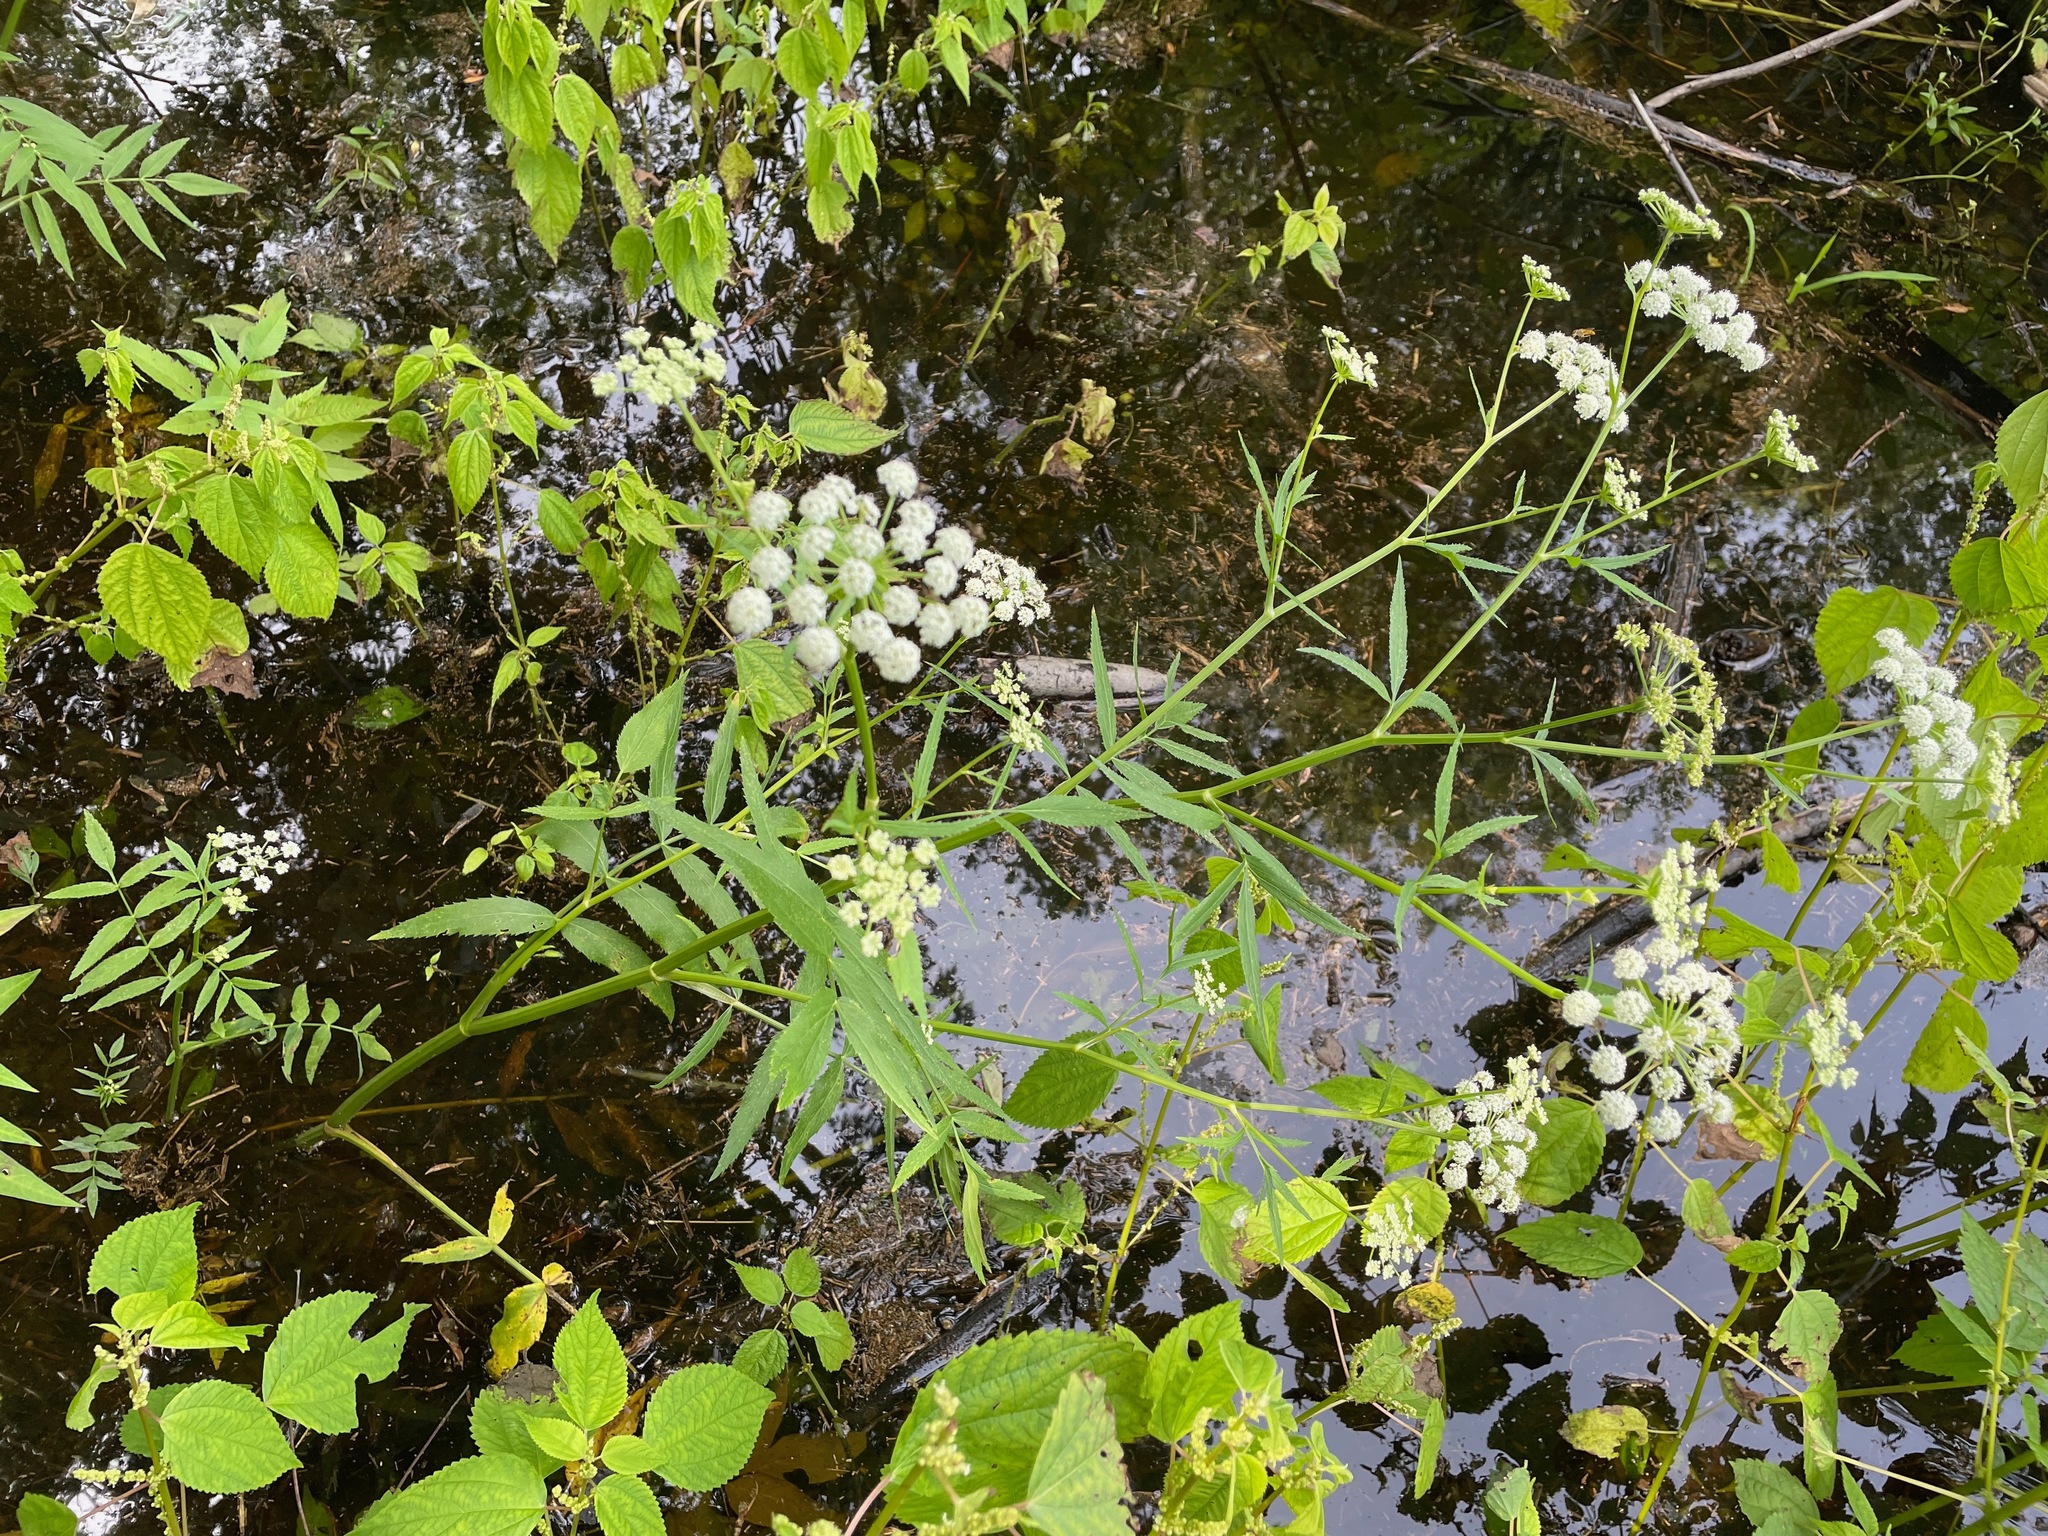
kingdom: Plantae
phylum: Tracheophyta
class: Magnoliopsida
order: Apiales
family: Apiaceae
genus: Sium
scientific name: Sium suave
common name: Hemlock water-parsnip
